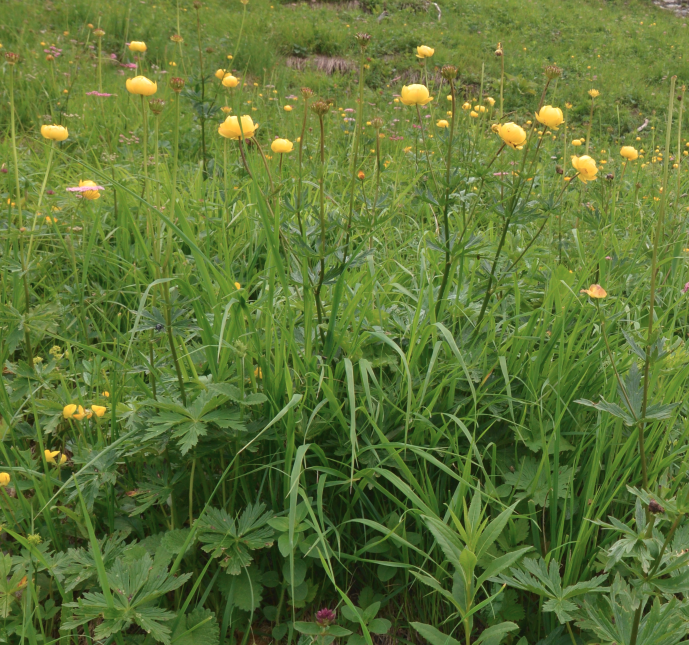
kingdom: Plantae
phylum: Tracheophyta
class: Magnoliopsida
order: Ranunculales
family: Ranunculaceae
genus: Trollius
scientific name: Trollius europaeus
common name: European globeflower
